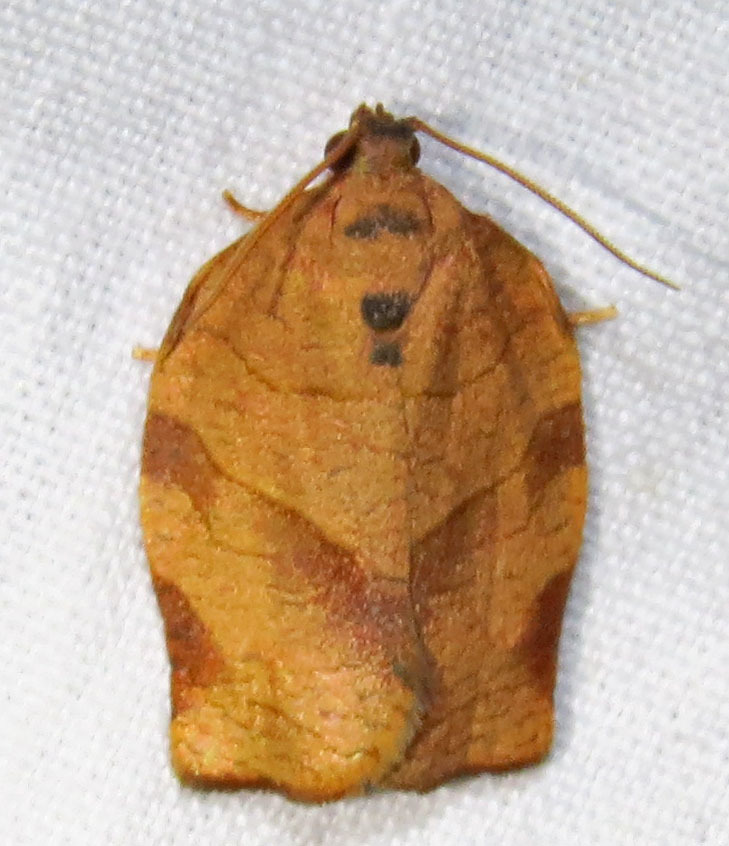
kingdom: Animalia
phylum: Arthropoda
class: Insecta
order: Lepidoptera
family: Tortricidae
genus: Choristoneura
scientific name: Choristoneura rosaceana
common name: Oblique-banded leafroller moth
